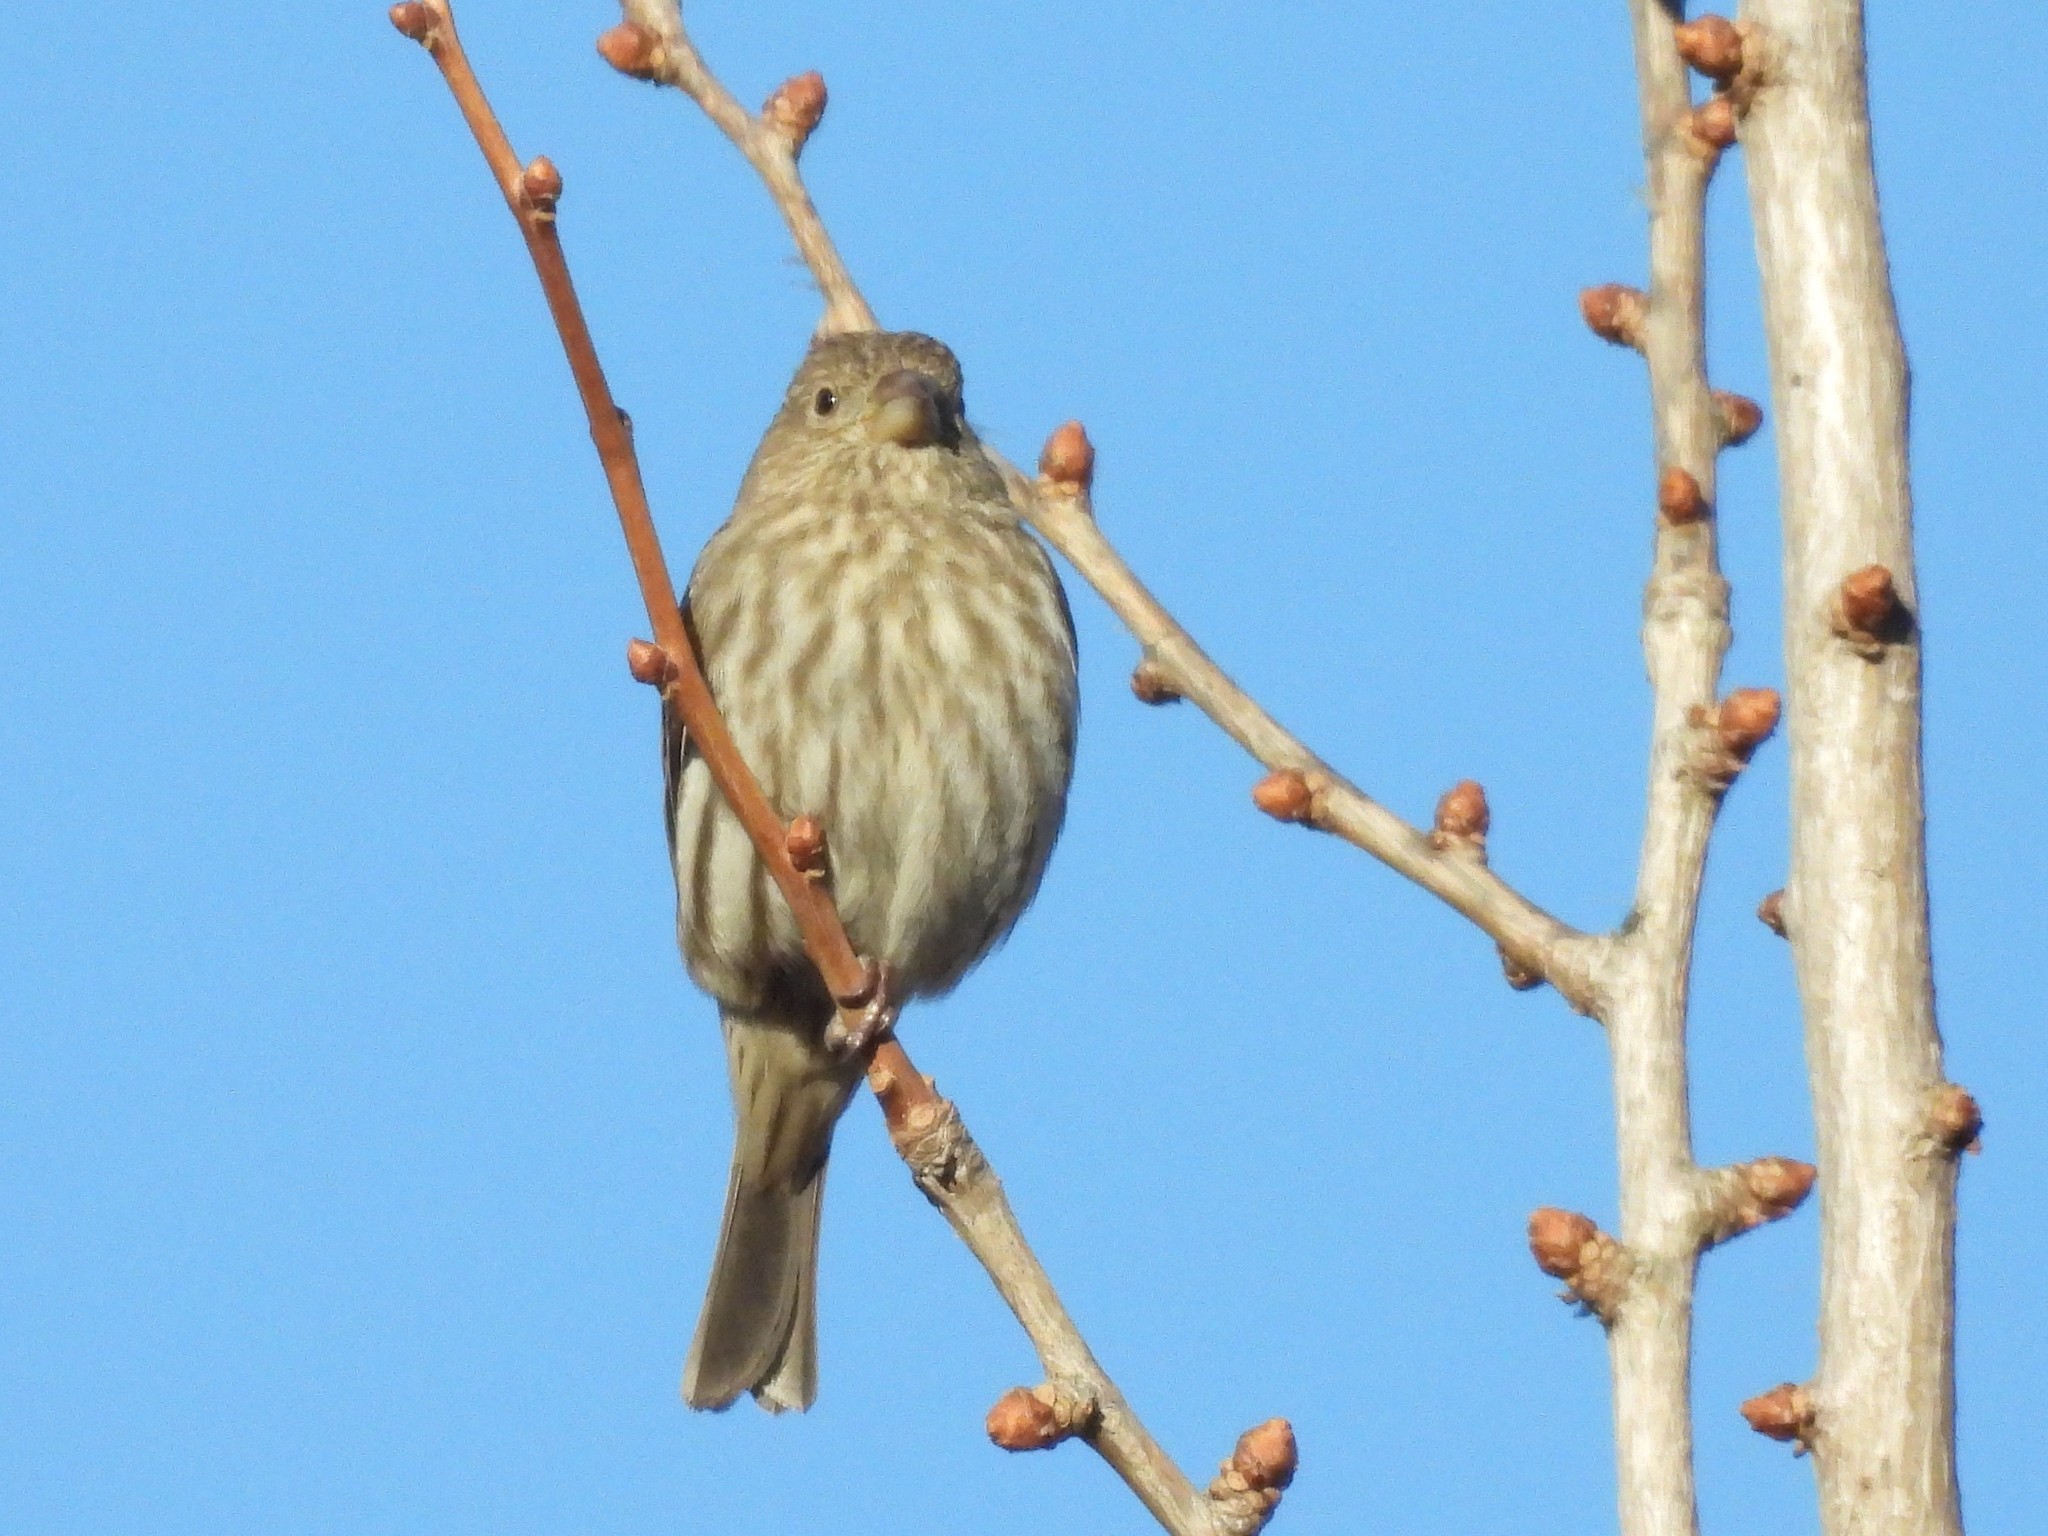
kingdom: Animalia
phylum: Chordata
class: Aves
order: Passeriformes
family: Fringillidae
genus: Haemorhous
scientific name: Haemorhous mexicanus
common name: House finch
